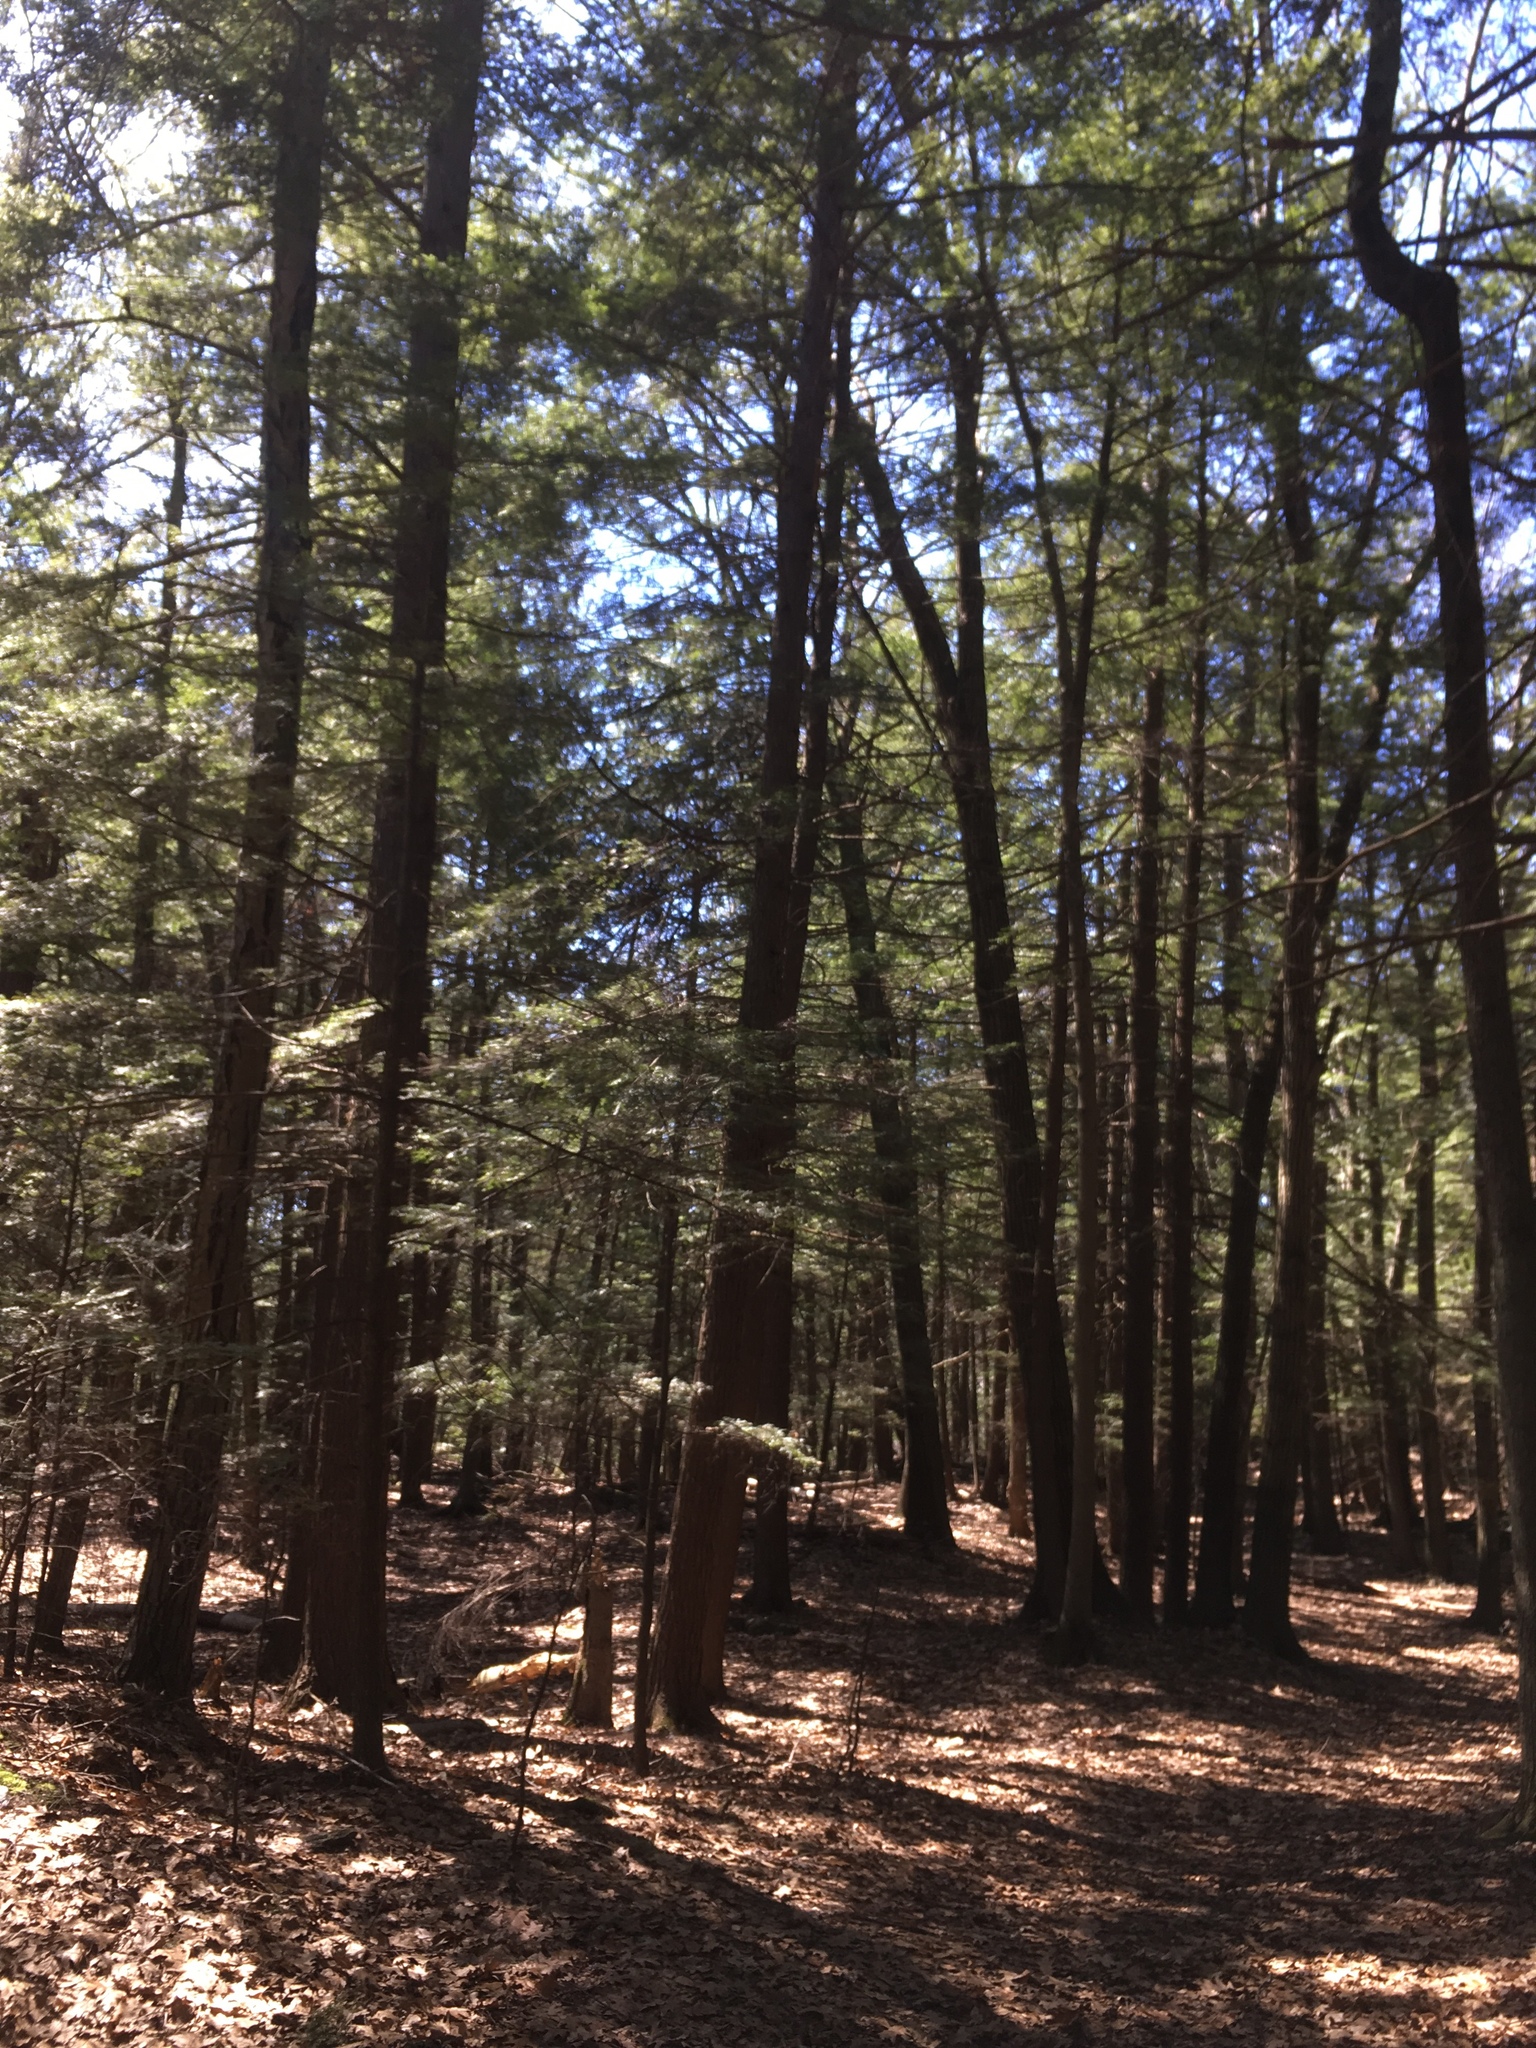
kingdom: Plantae
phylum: Tracheophyta
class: Pinopsida
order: Pinales
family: Pinaceae
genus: Tsuga
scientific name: Tsuga canadensis
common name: Eastern hemlock
